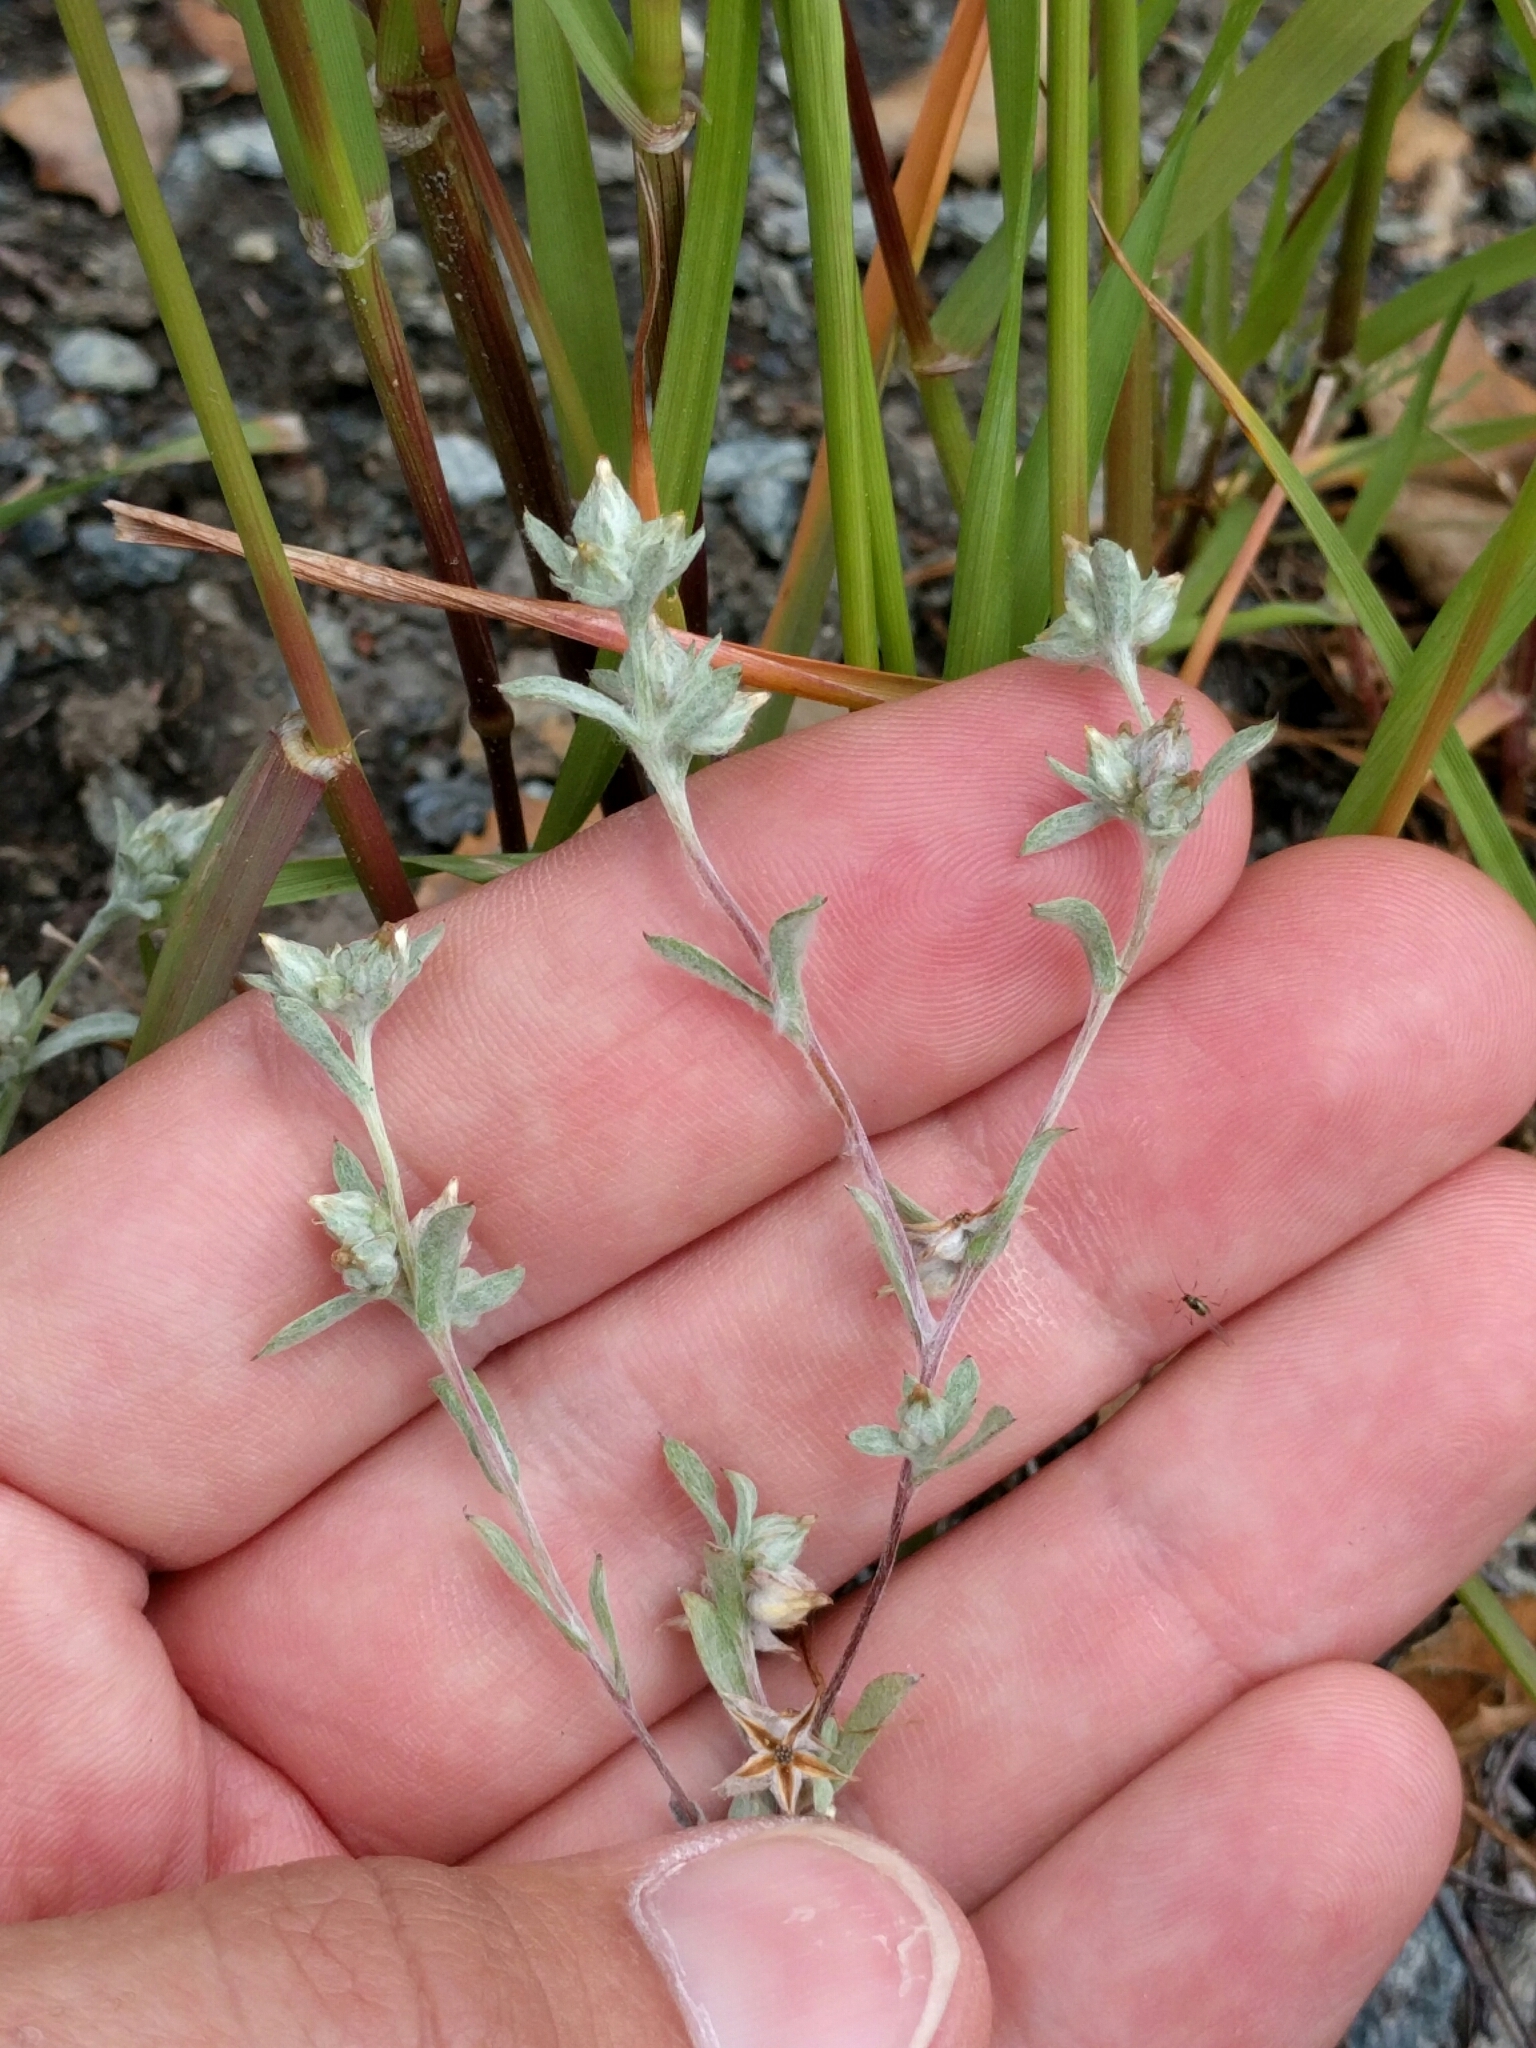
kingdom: Plantae
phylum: Tracheophyta
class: Magnoliopsida
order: Asterales
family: Asteraceae
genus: Logfia
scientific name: Logfia californica
